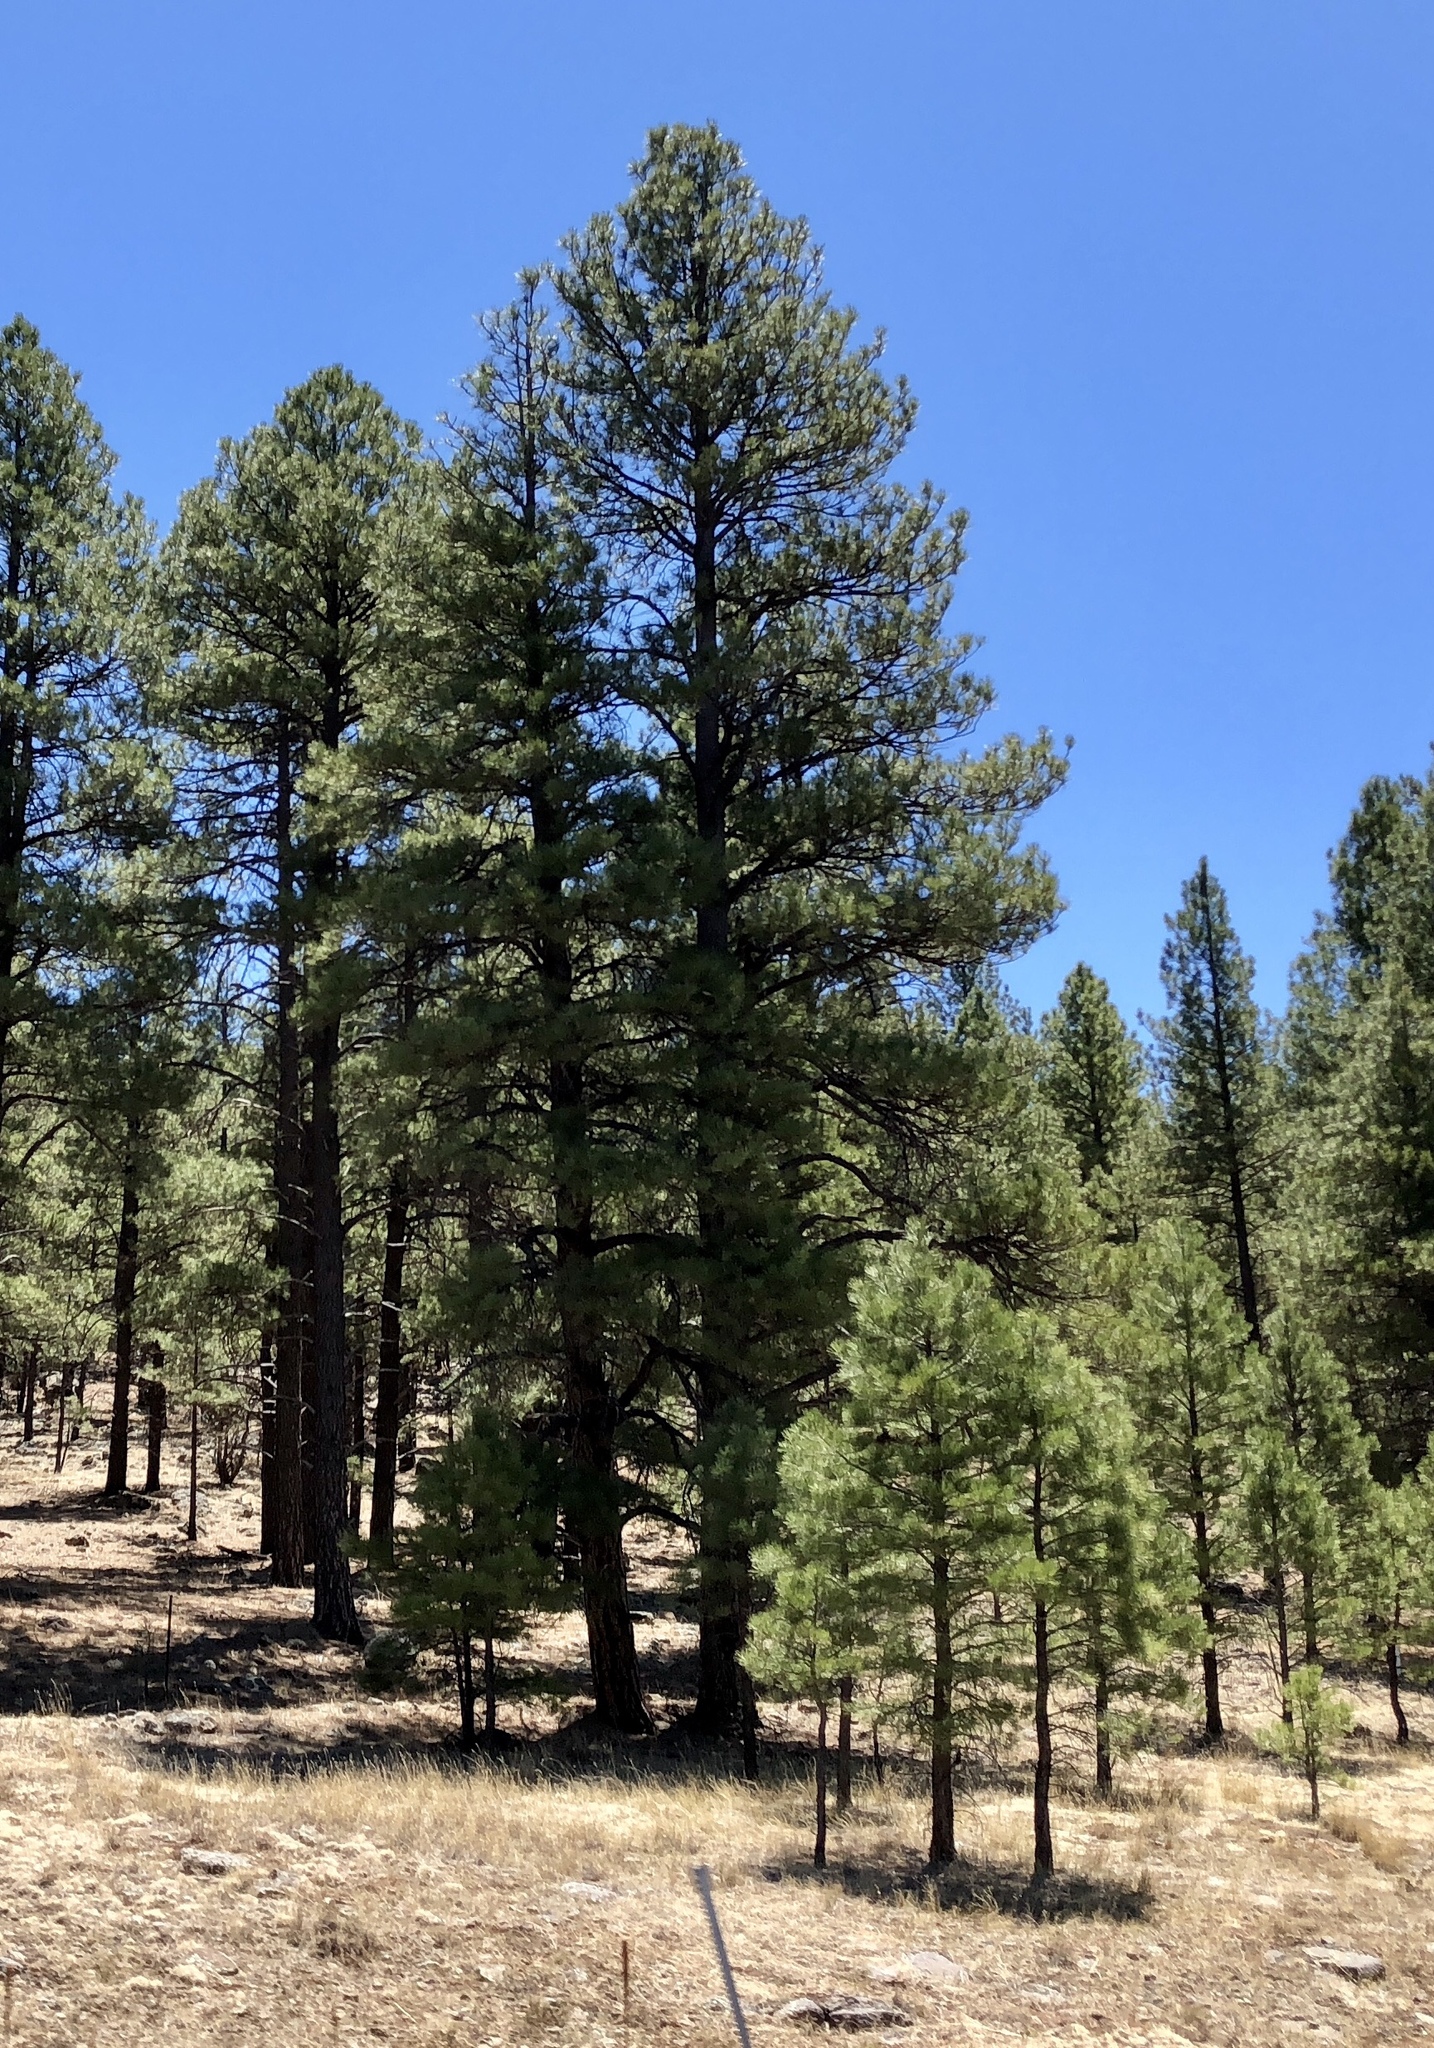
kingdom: Plantae
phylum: Tracheophyta
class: Pinopsida
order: Pinales
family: Pinaceae
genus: Pinus
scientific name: Pinus ponderosa
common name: Western yellow-pine
